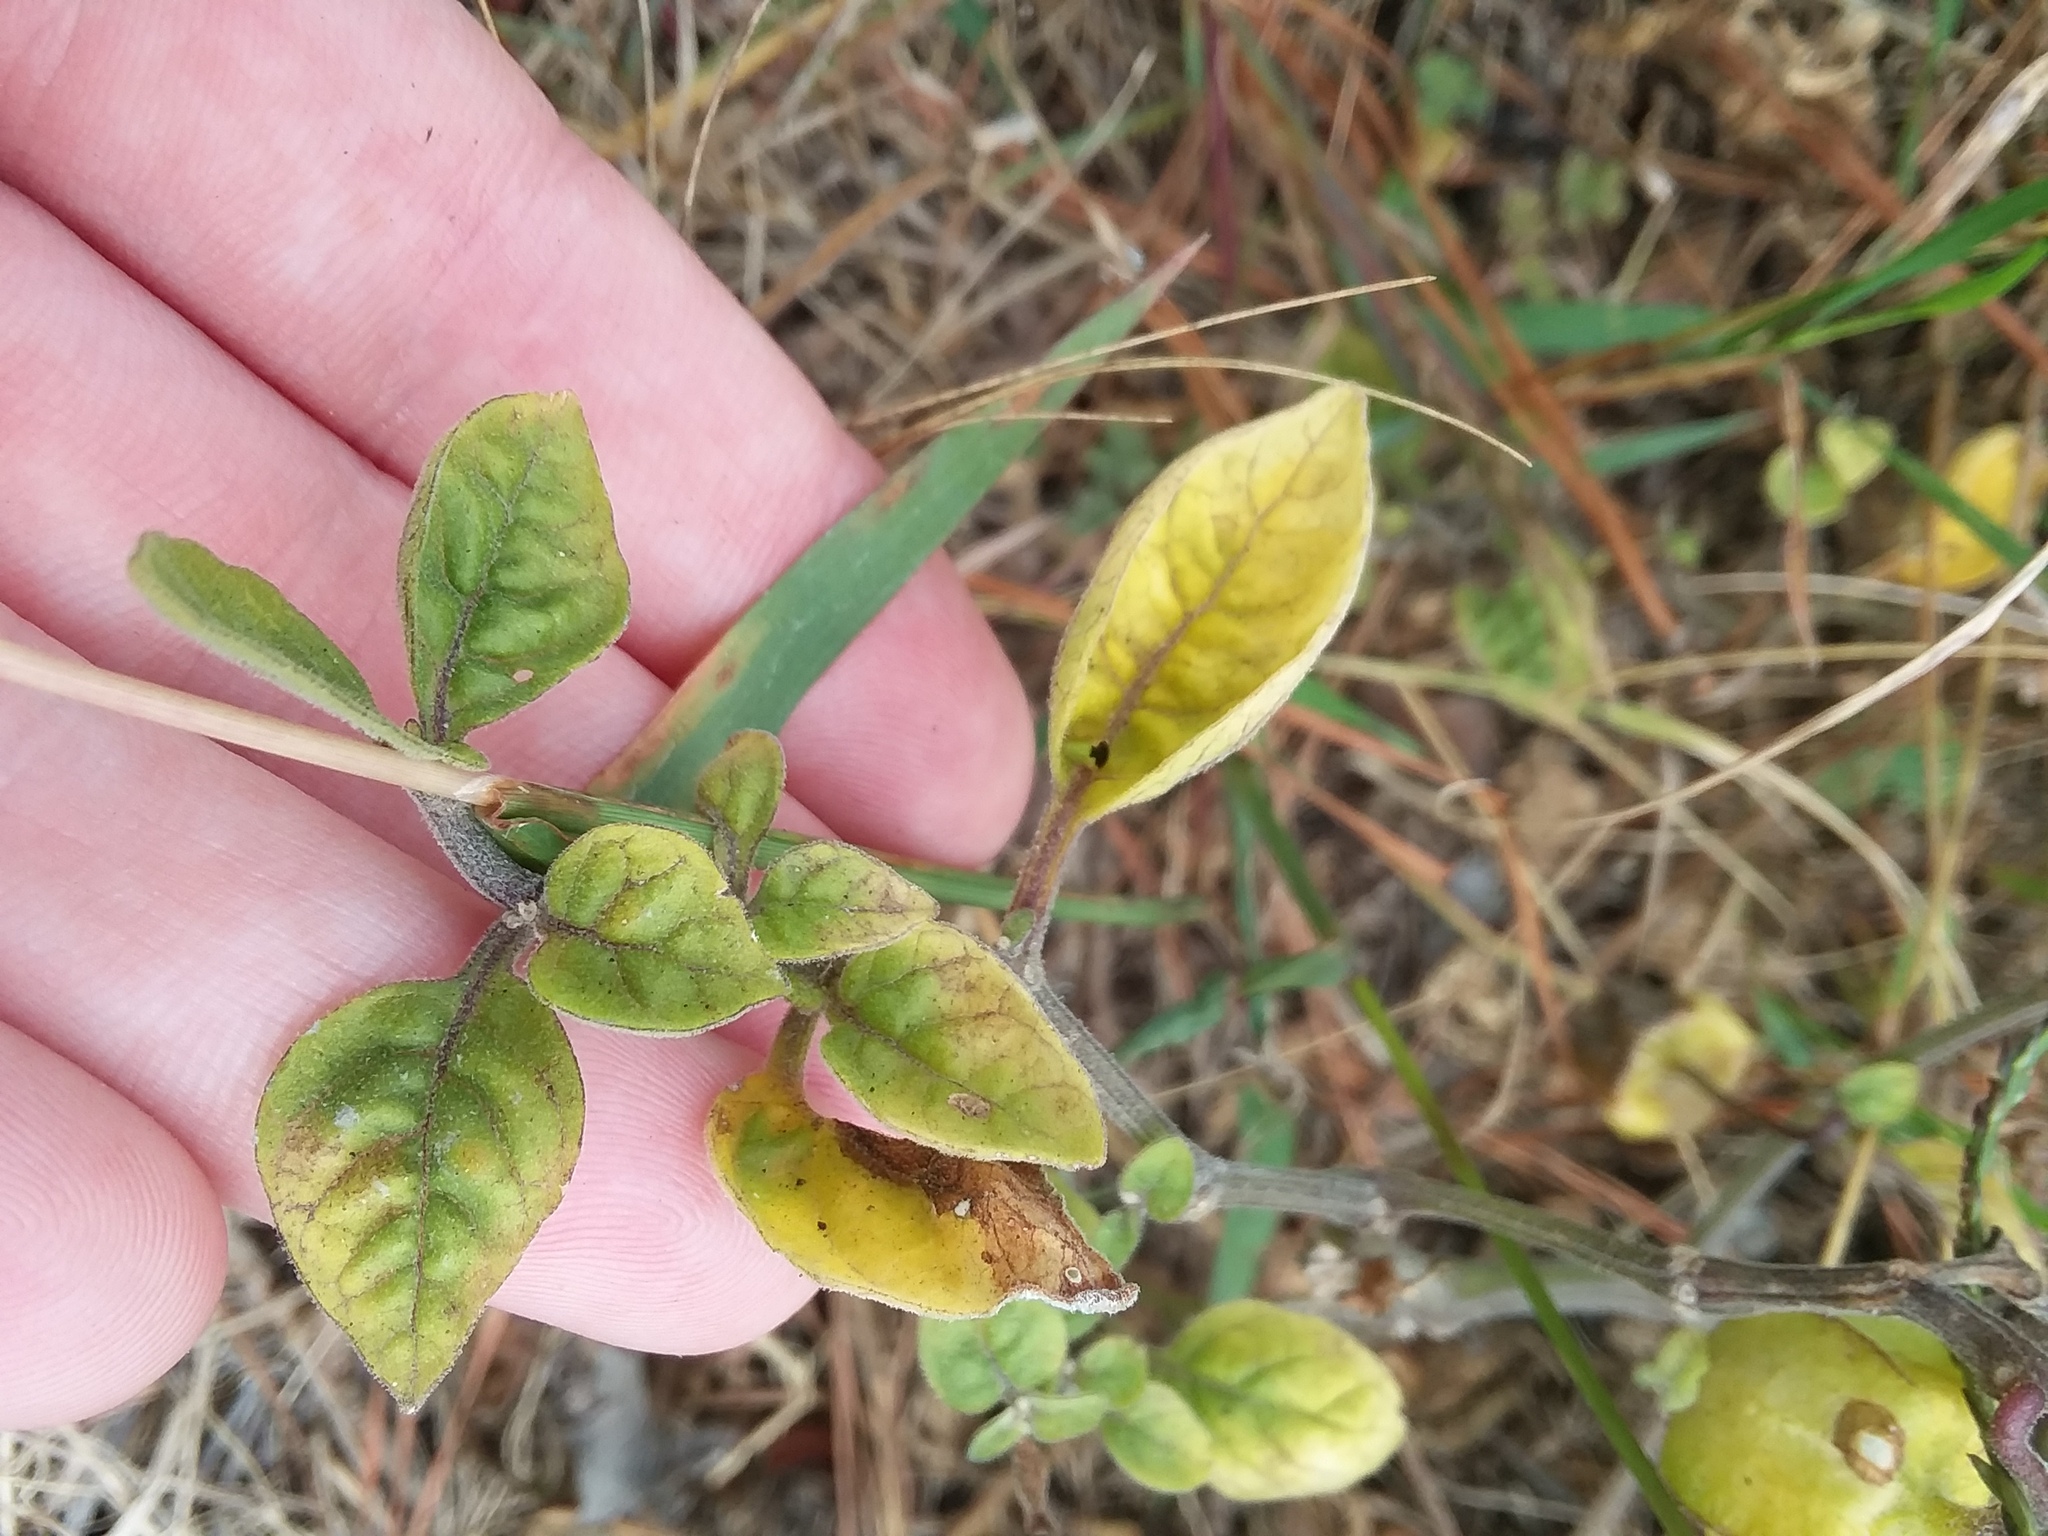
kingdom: Plantae
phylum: Tracheophyta
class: Magnoliopsida
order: Solanales
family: Solanaceae
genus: Physalis
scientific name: Physalis walteri
